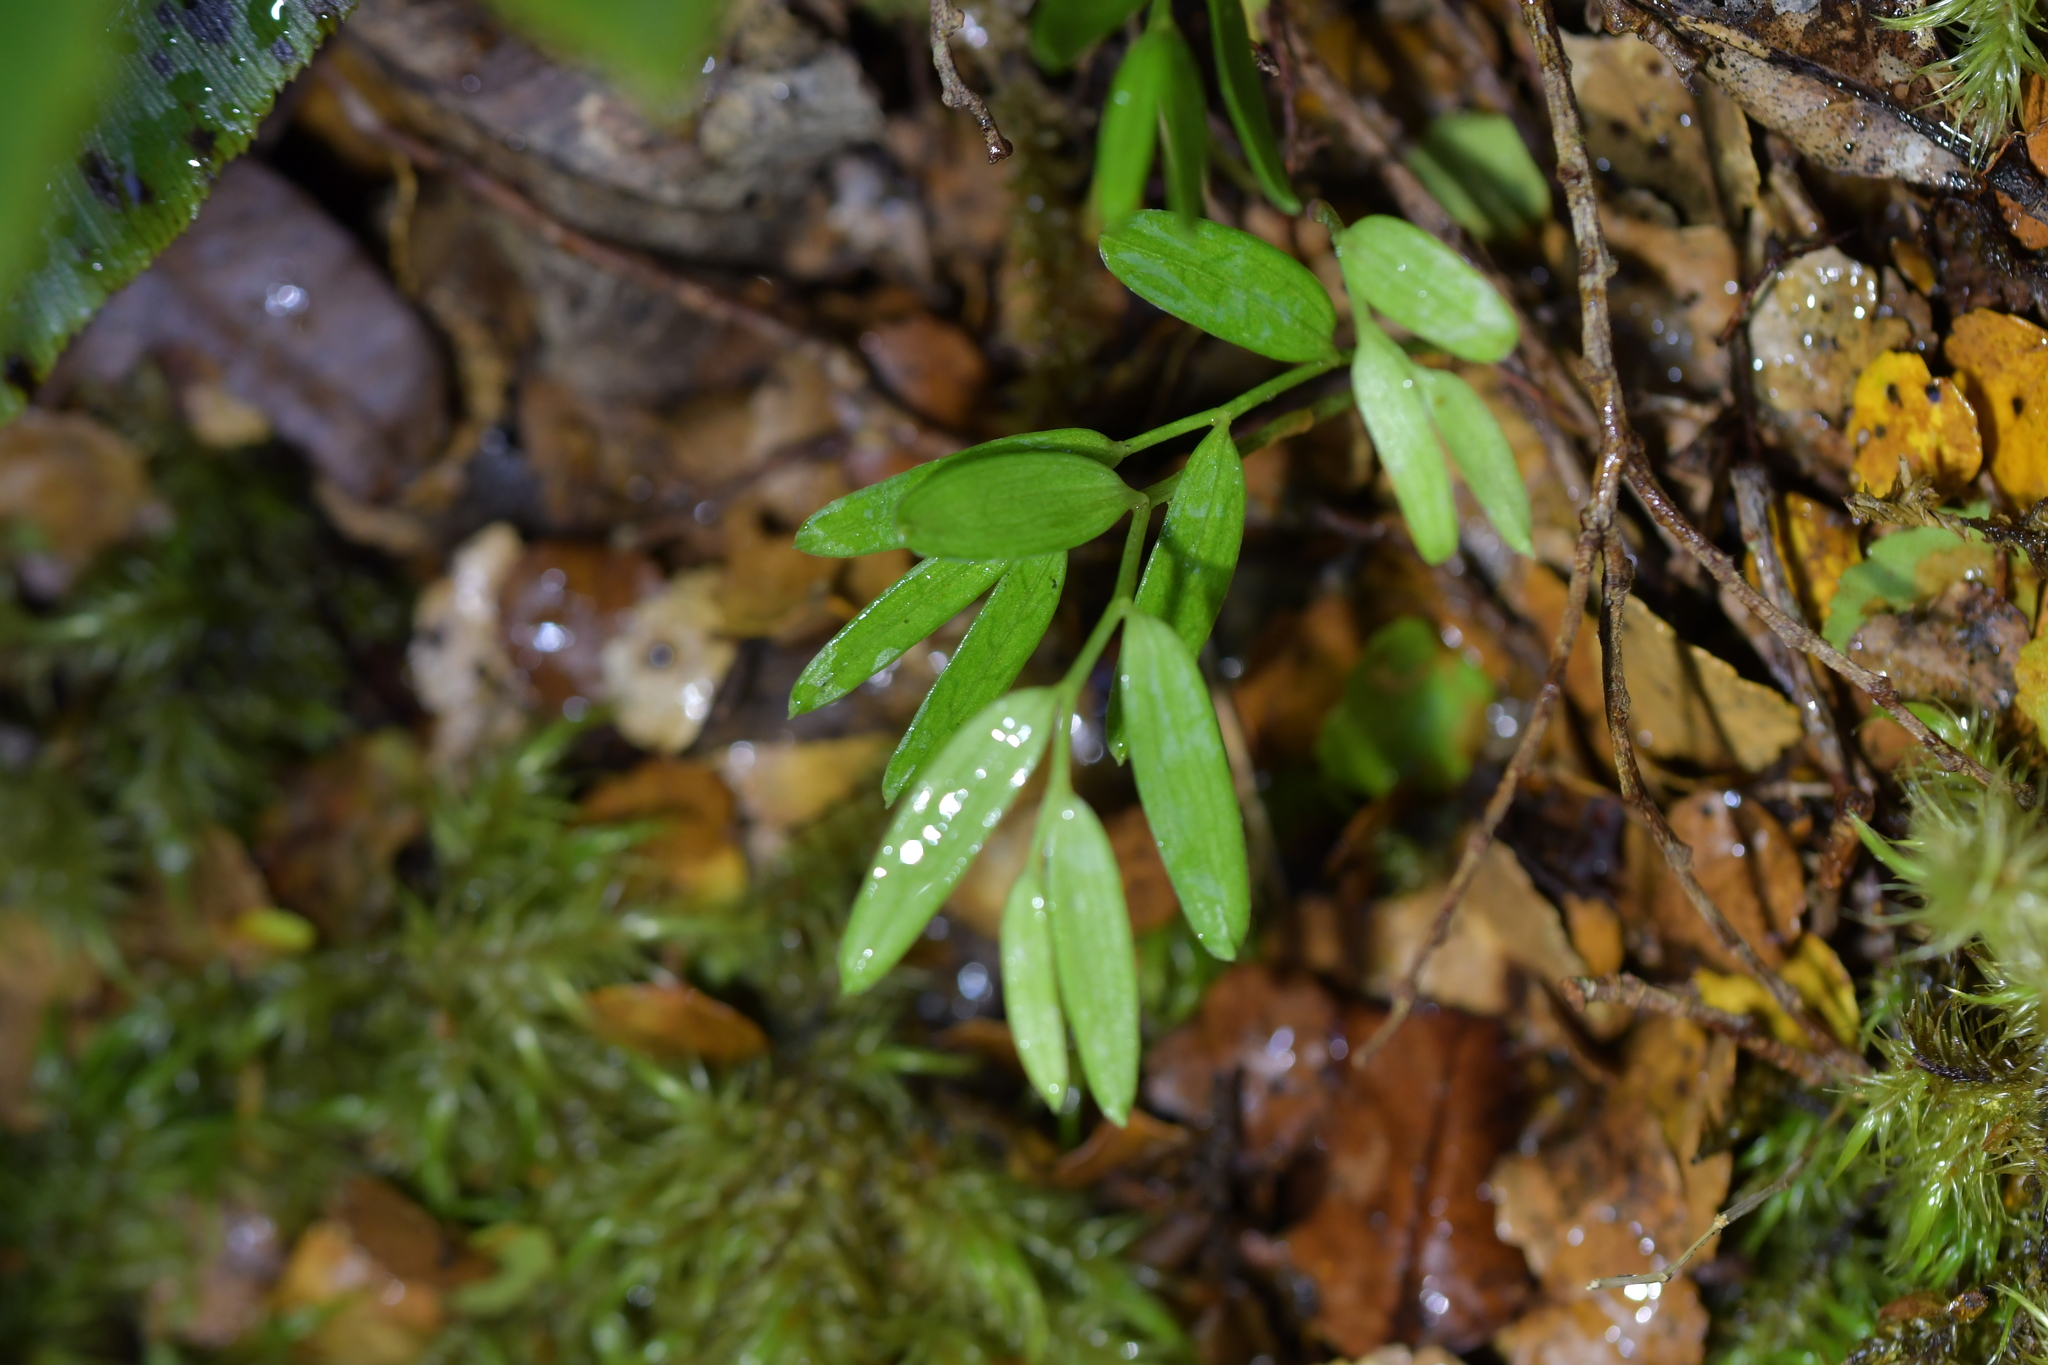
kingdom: Plantae
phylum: Tracheophyta
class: Liliopsida
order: Liliales
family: Alstroemeriaceae
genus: Luzuriaga
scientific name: Luzuriaga parviflora
